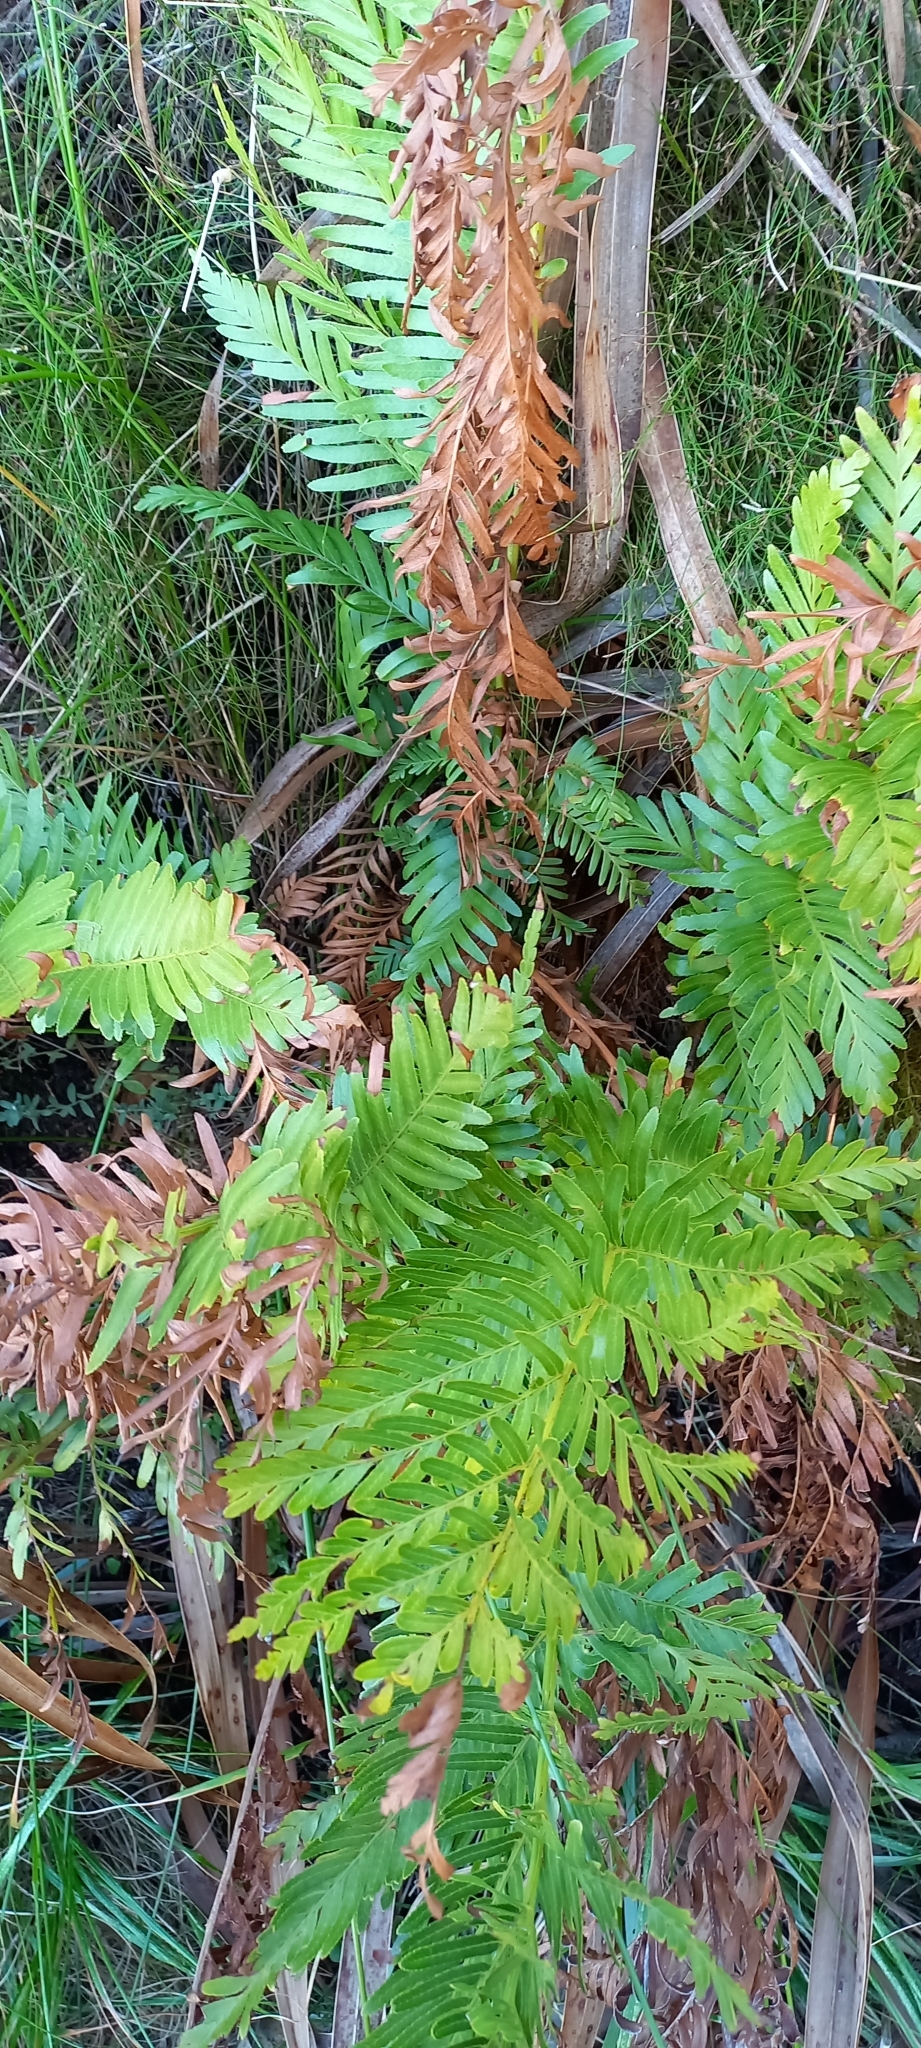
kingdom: Plantae
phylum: Tracheophyta
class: Polypodiopsida
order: Osmundales
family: Osmundaceae
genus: Todea
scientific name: Todea barbara
